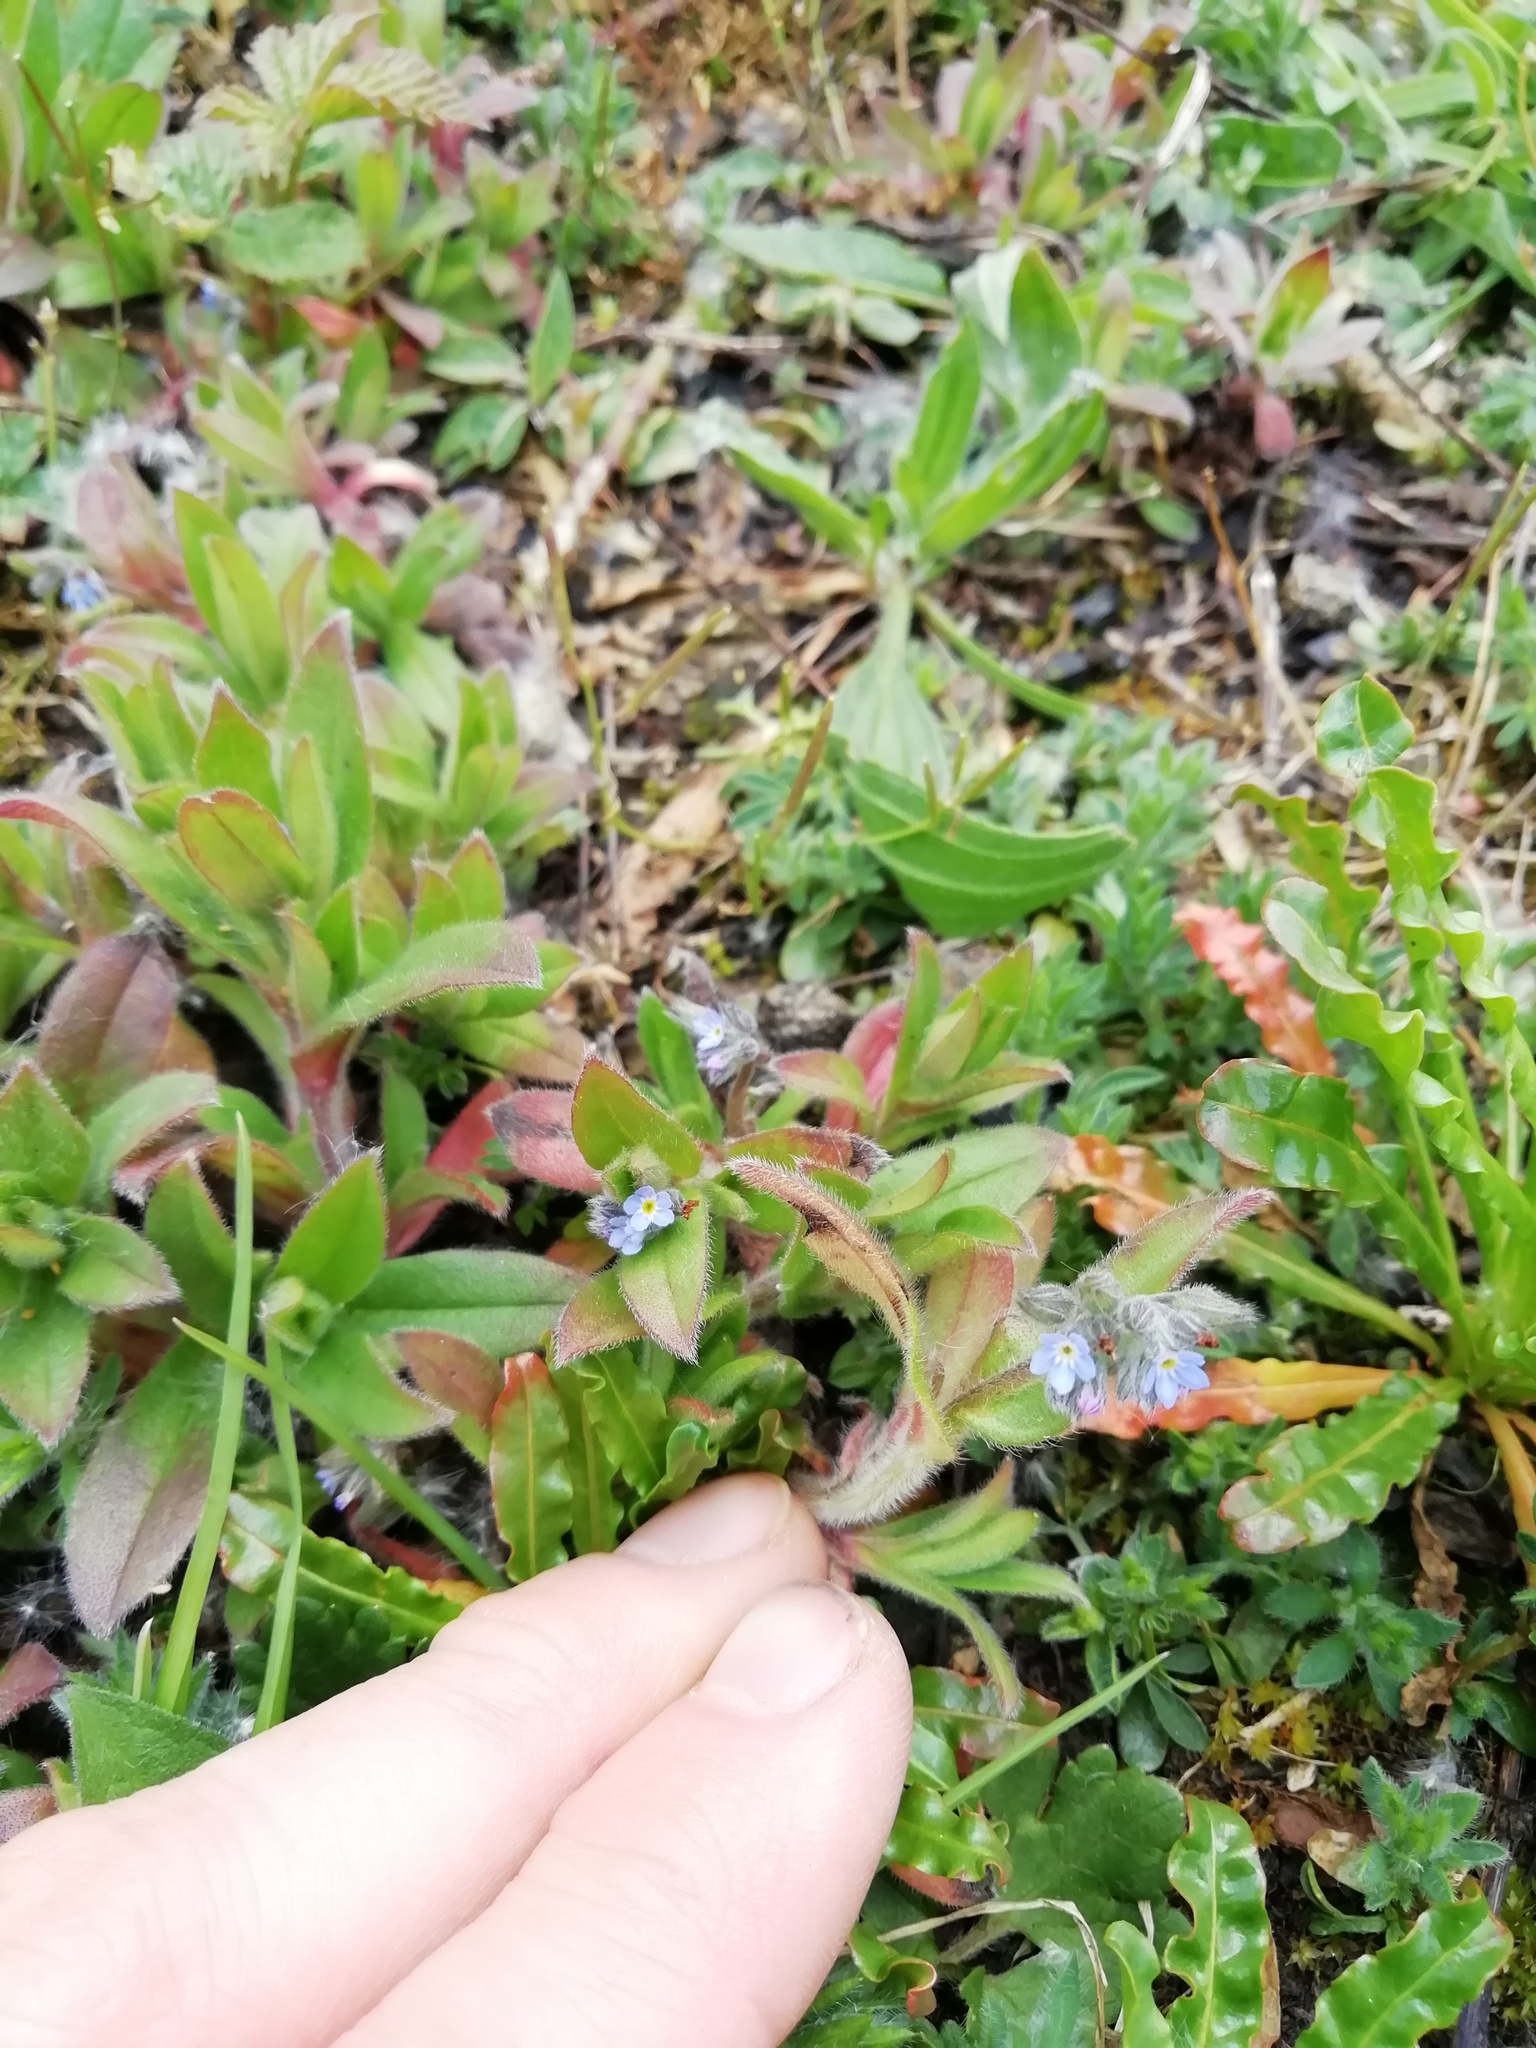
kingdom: Plantae
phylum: Tracheophyta
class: Magnoliopsida
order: Boraginales
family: Boraginaceae
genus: Myosotis
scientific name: Myosotis arvensis
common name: Field forget-me-not
